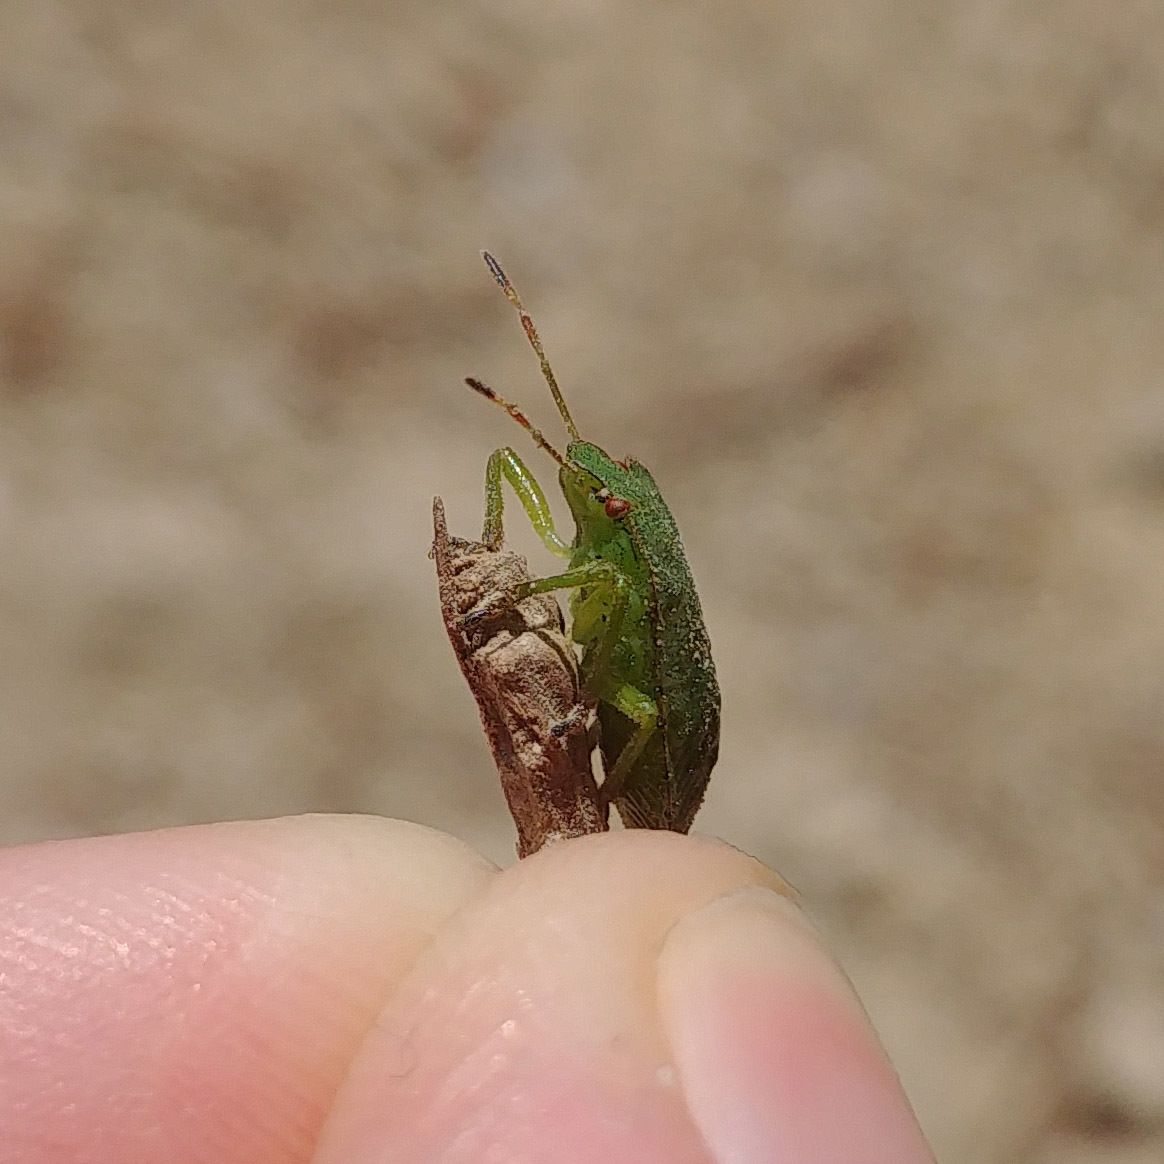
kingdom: Animalia
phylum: Arthropoda
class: Insecta
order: Hemiptera
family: Pentatomidae
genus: Palomena
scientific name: Palomena prasina
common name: Green shieldbug
